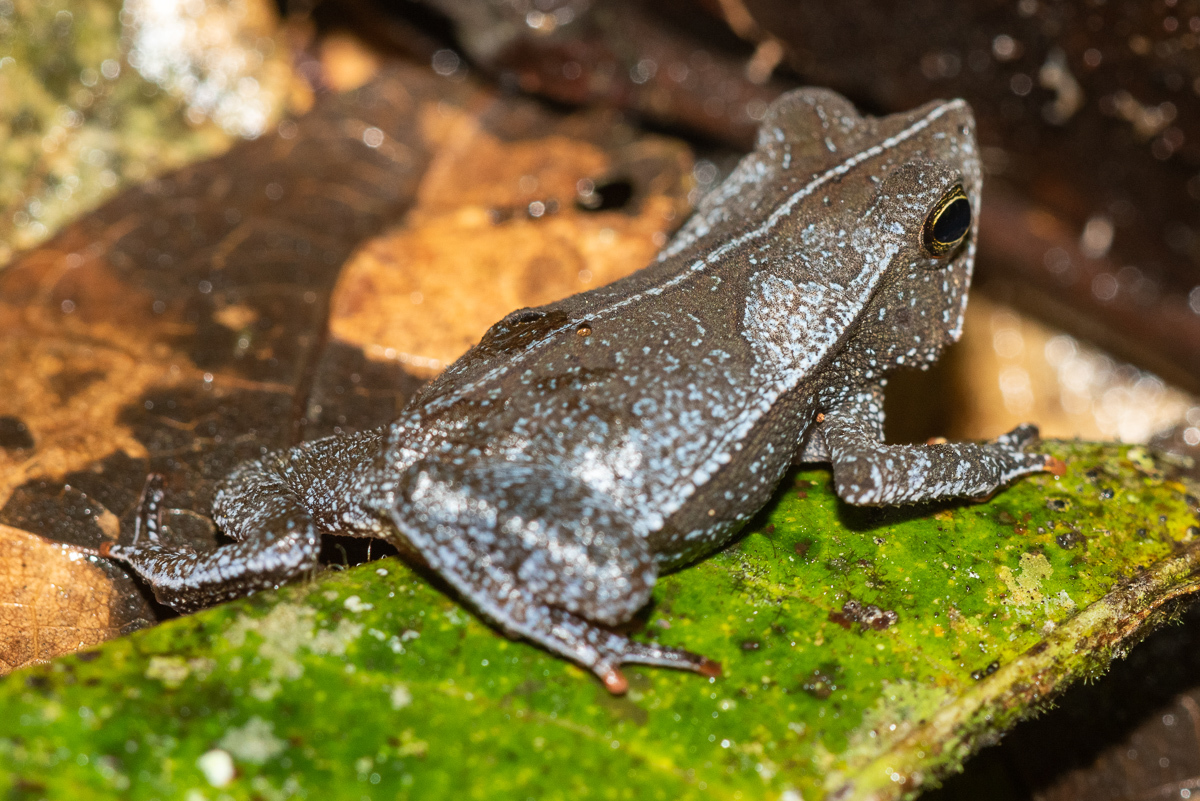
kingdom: Animalia
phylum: Chordata
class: Amphibia
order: Anura
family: Bufonidae
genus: Rhinella
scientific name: Rhinella margaritifera
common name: Mitred toad
